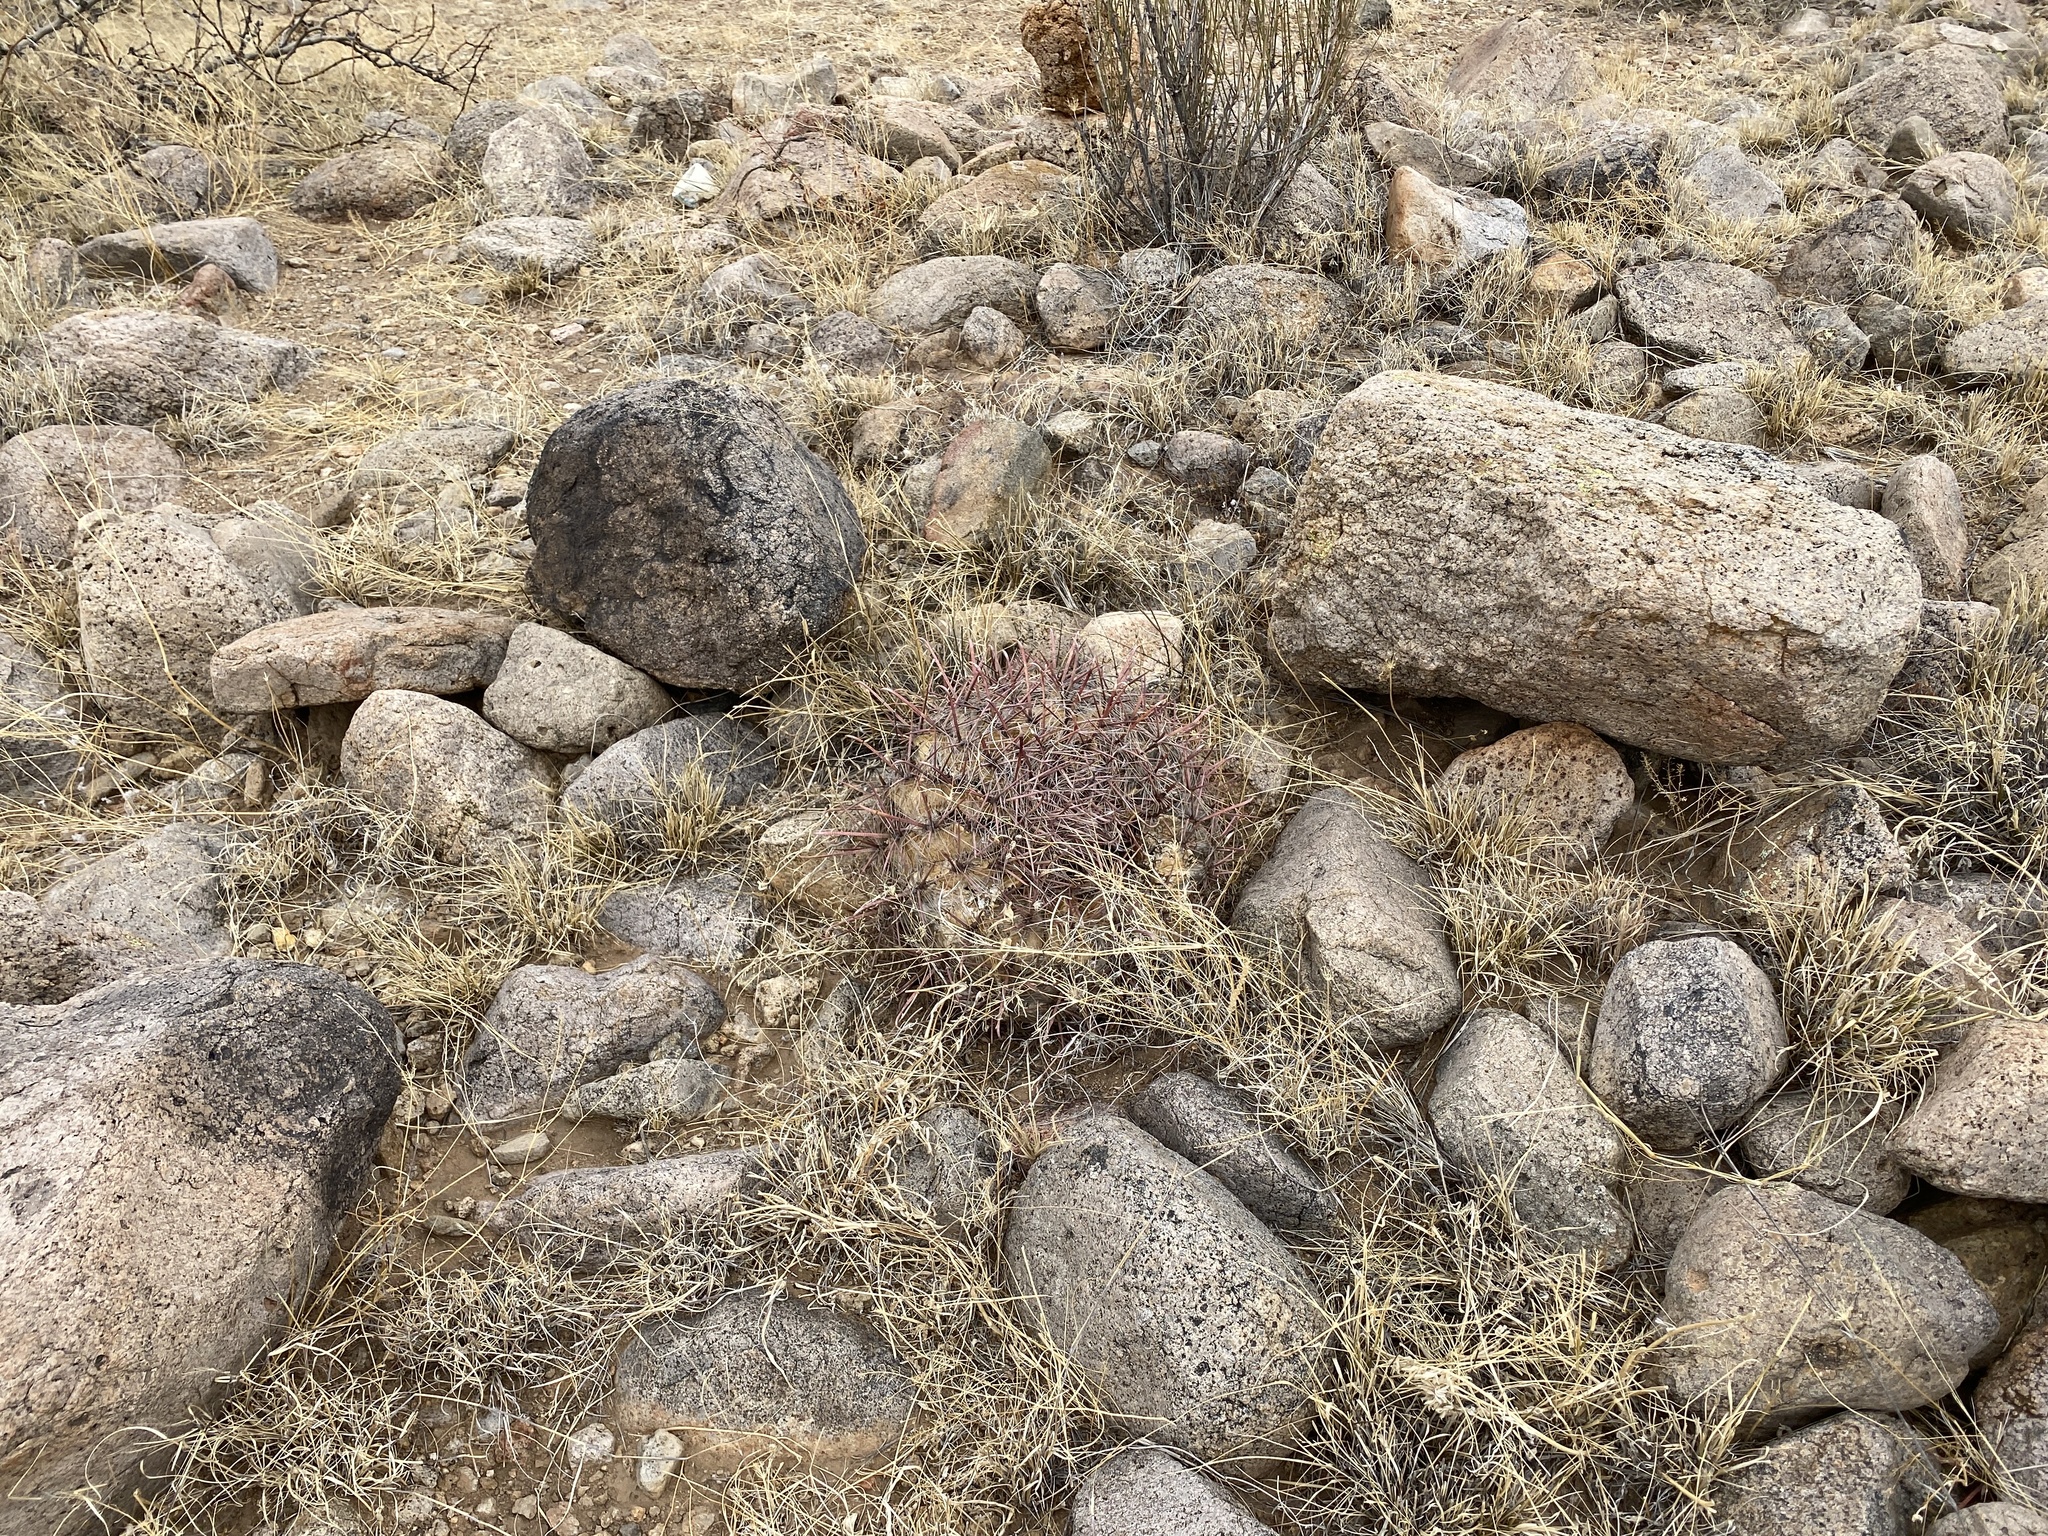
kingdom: Plantae
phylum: Tracheophyta
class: Magnoliopsida
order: Caryophyllales
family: Cactaceae
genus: Ferocactus
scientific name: Ferocactus wislizeni
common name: Candy barrel cactus
